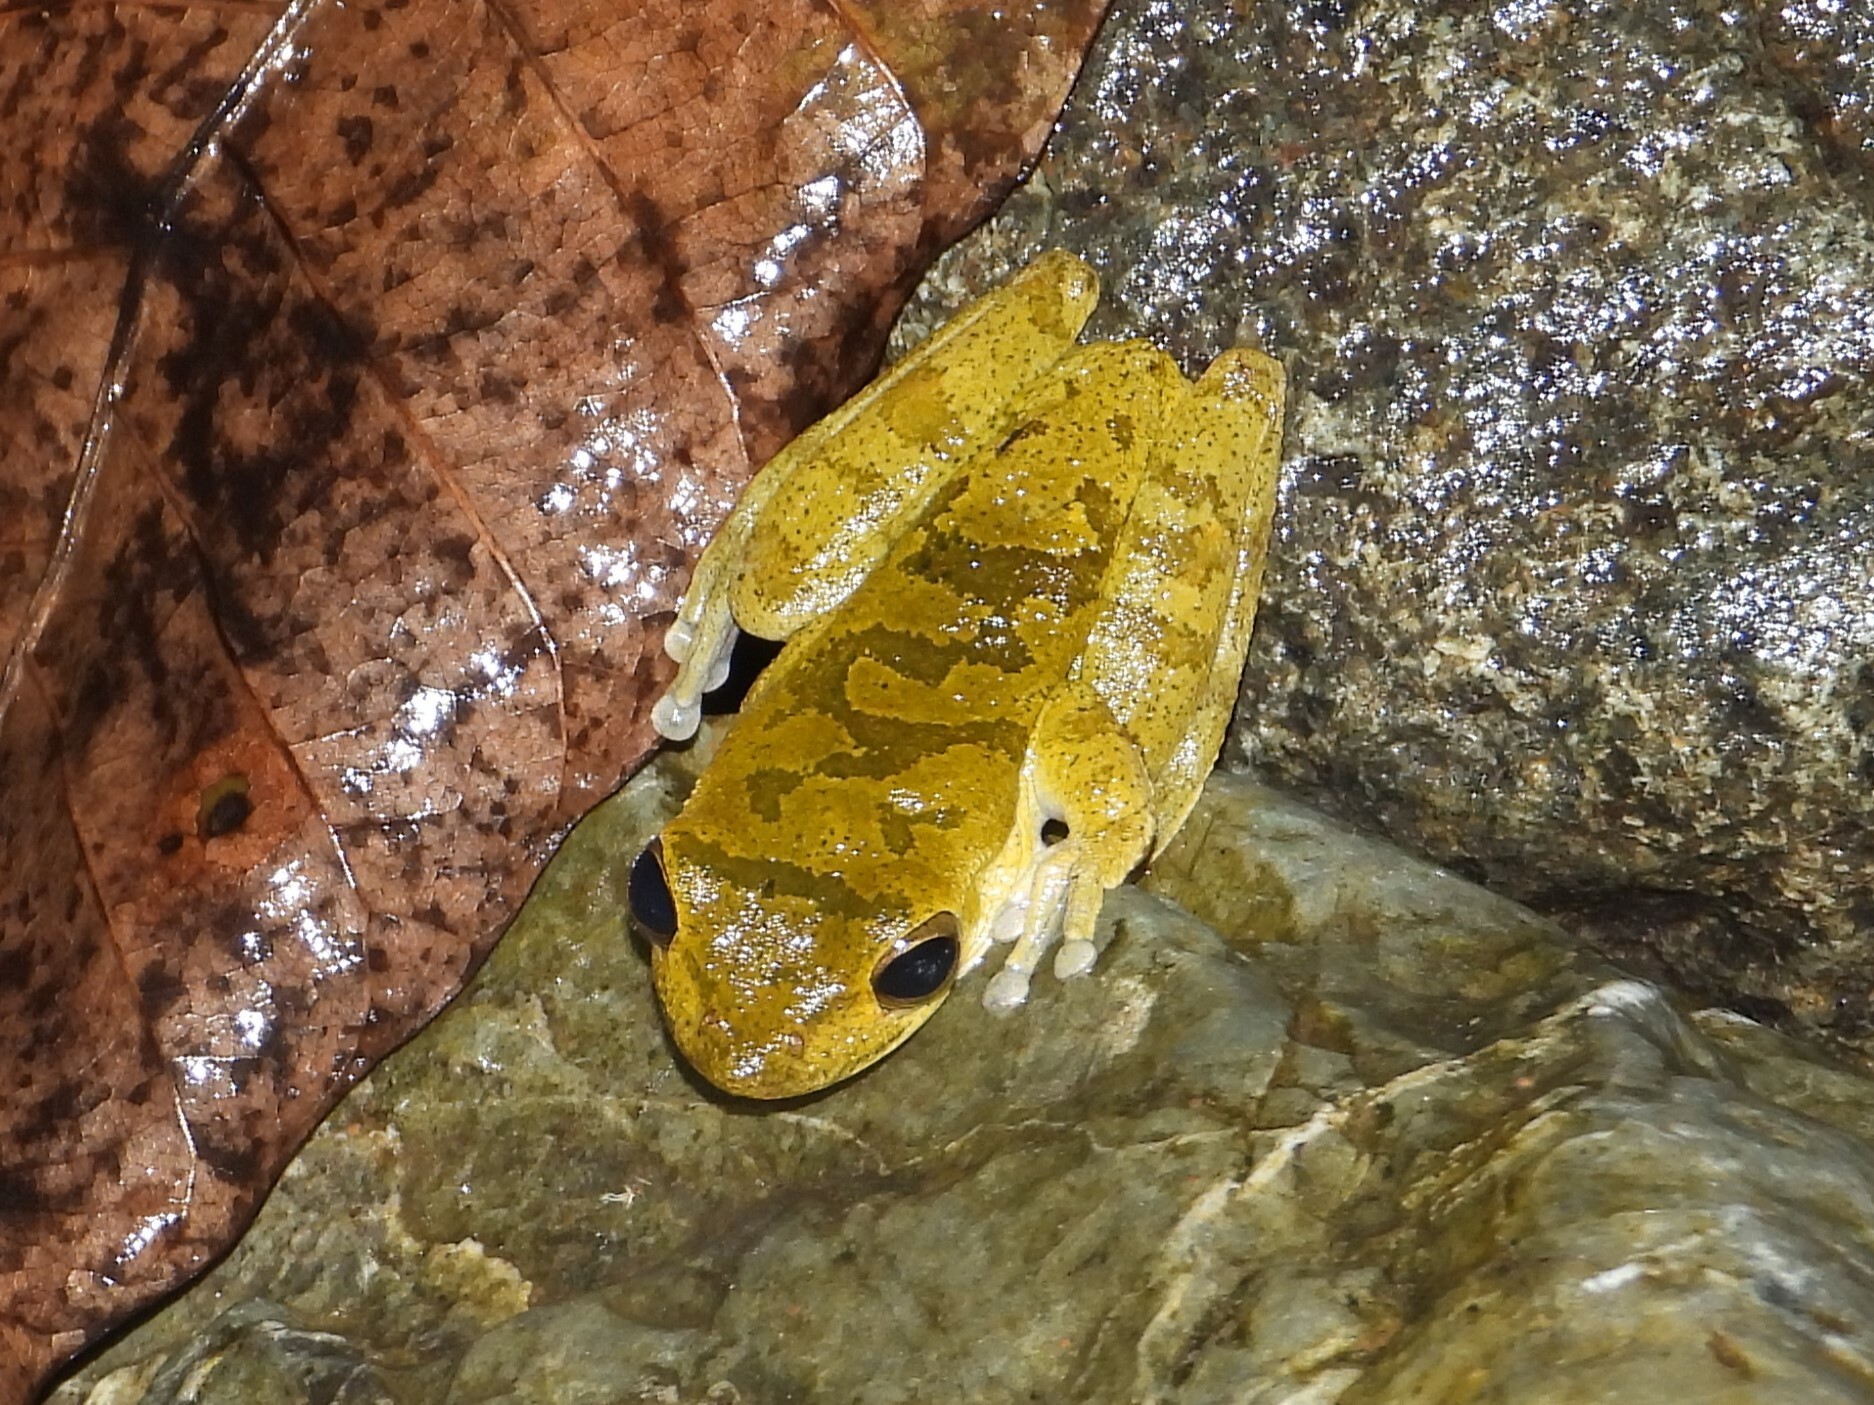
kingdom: Animalia
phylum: Chordata
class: Amphibia
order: Anura
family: Hylidae
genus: Smilisca
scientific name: Smilisca sordida
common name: Veragua cross-banded treefrog
